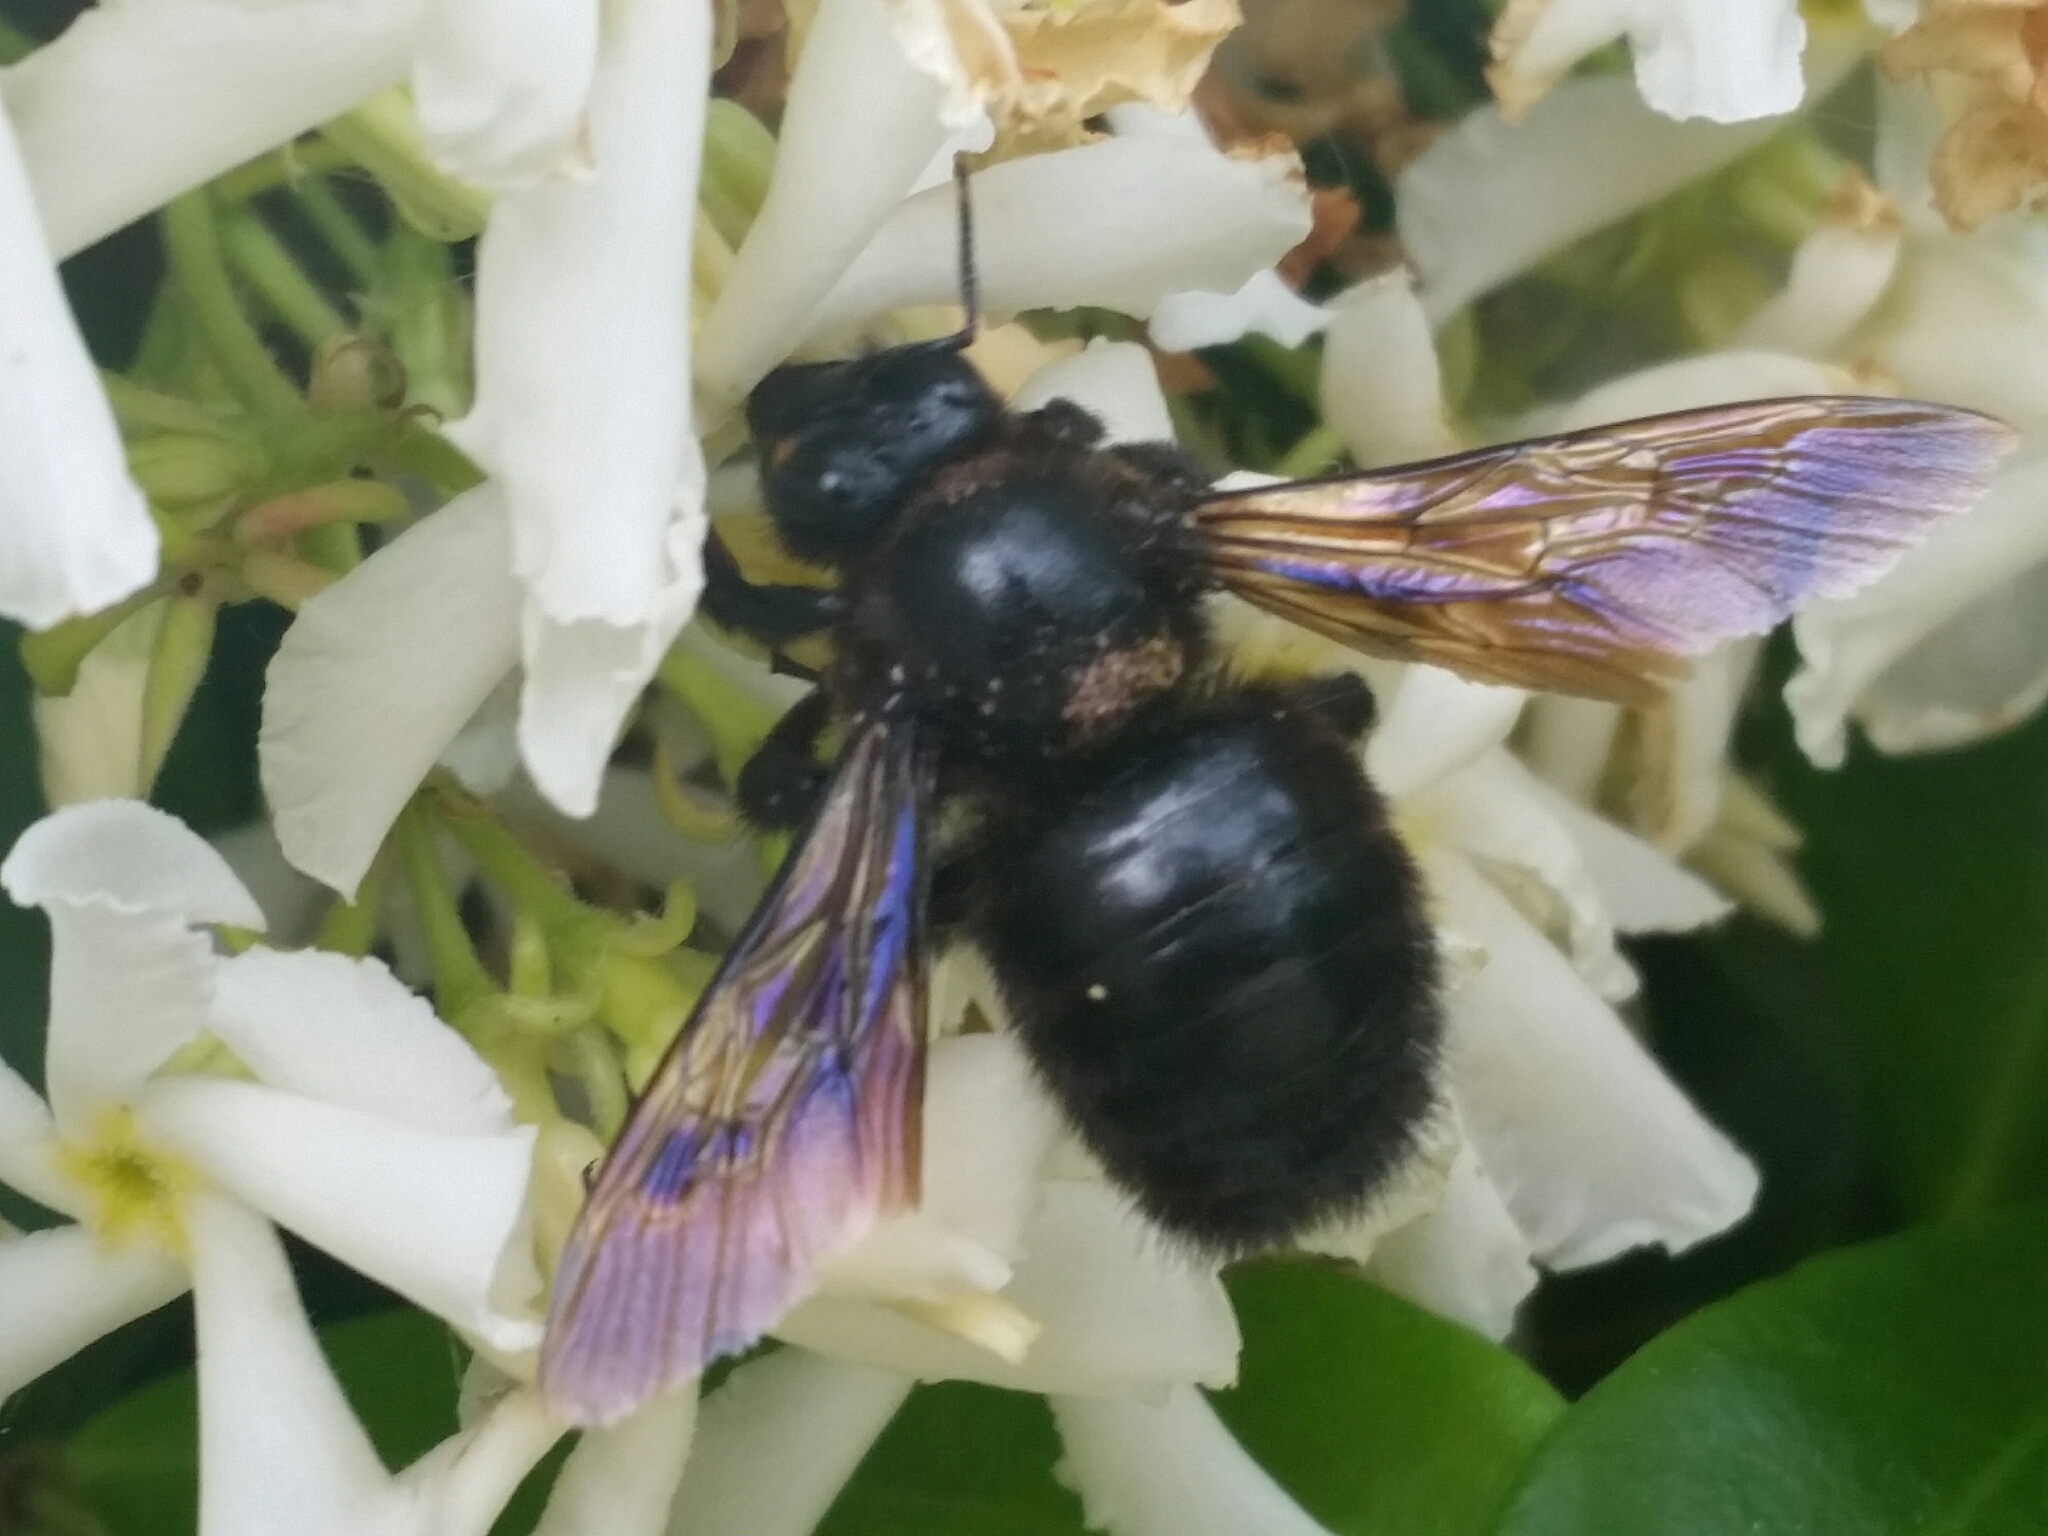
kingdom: Animalia
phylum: Arthropoda
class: Insecta
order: Hymenoptera
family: Apidae
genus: Xylocopa
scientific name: Xylocopa violacea
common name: Violet carpenter bee
